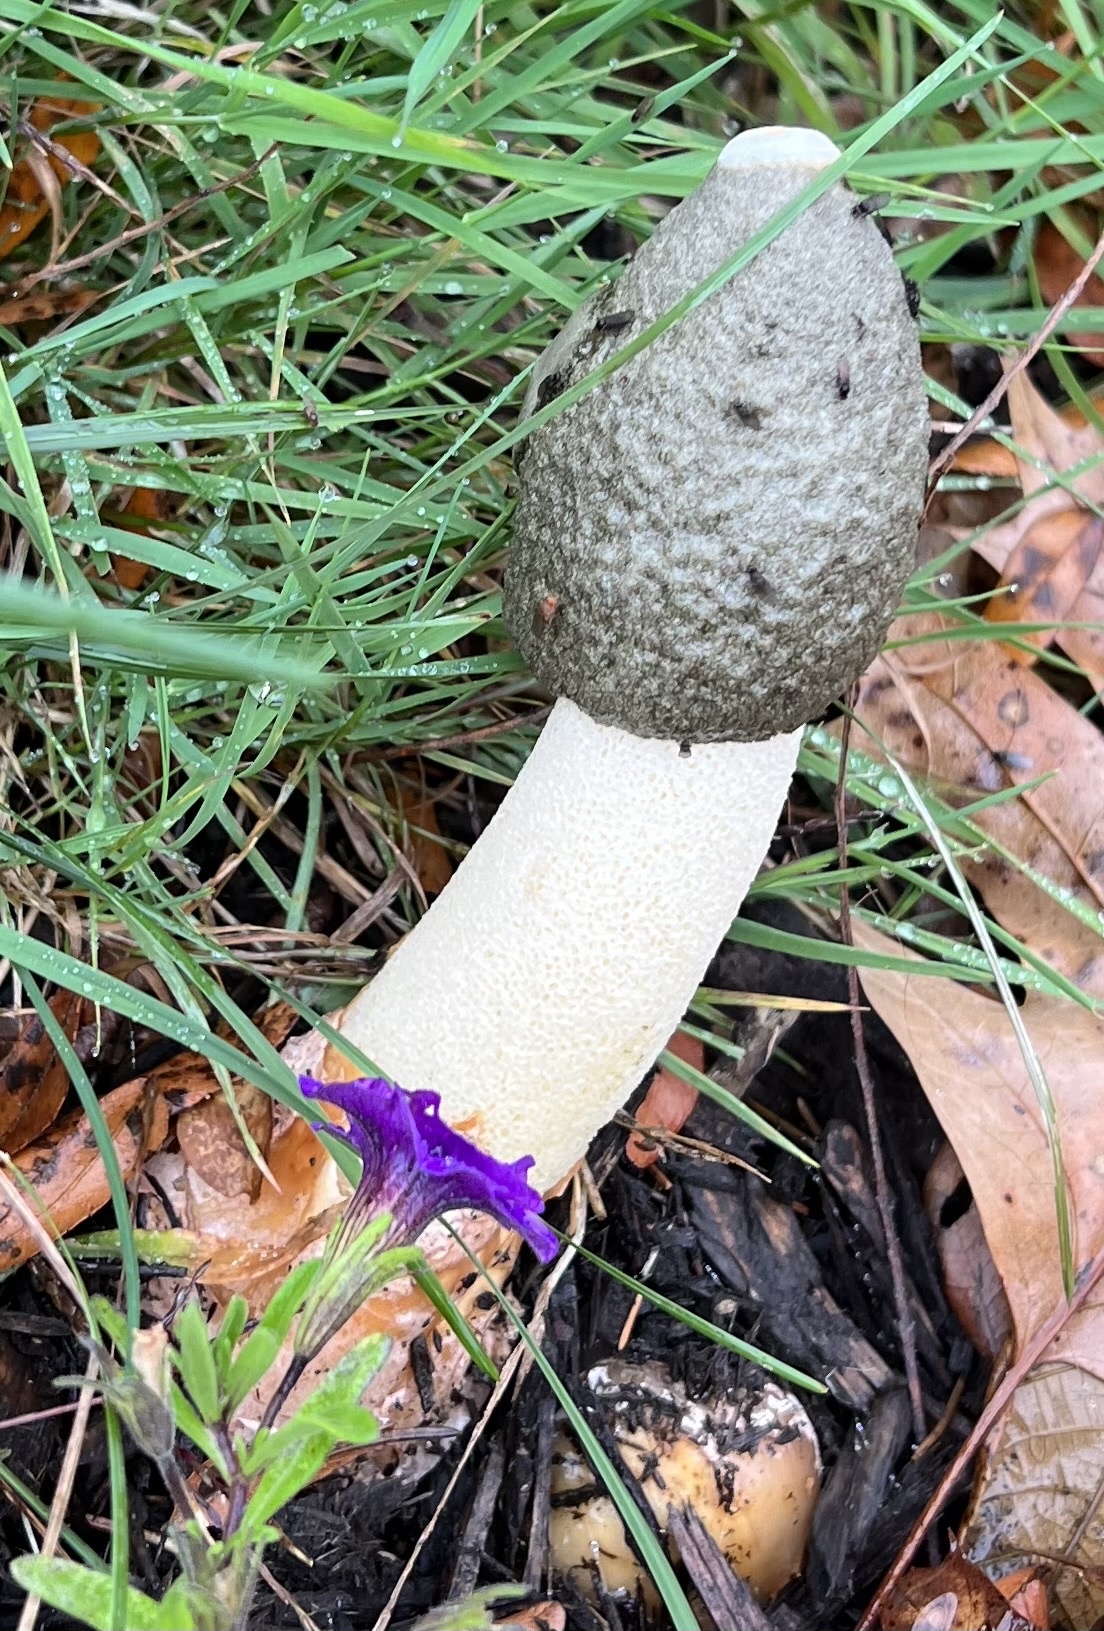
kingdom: Fungi
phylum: Basidiomycota
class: Agaricomycetes
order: Phallales
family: Phallaceae
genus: Phallus
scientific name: Phallus ravenelii
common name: Ravenel's stinkhorn
